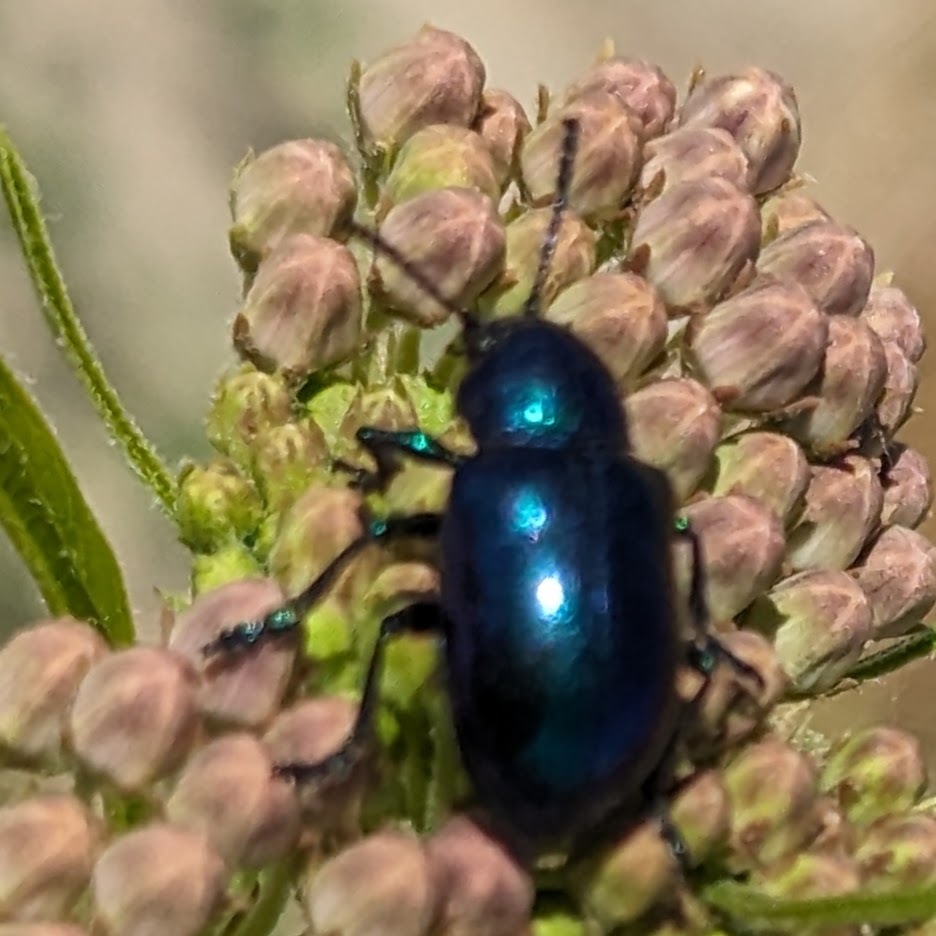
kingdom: Animalia
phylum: Arthropoda
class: Insecta
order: Coleoptera
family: Chrysomelidae
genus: Chrysochus
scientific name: Chrysochus cobaltinus
